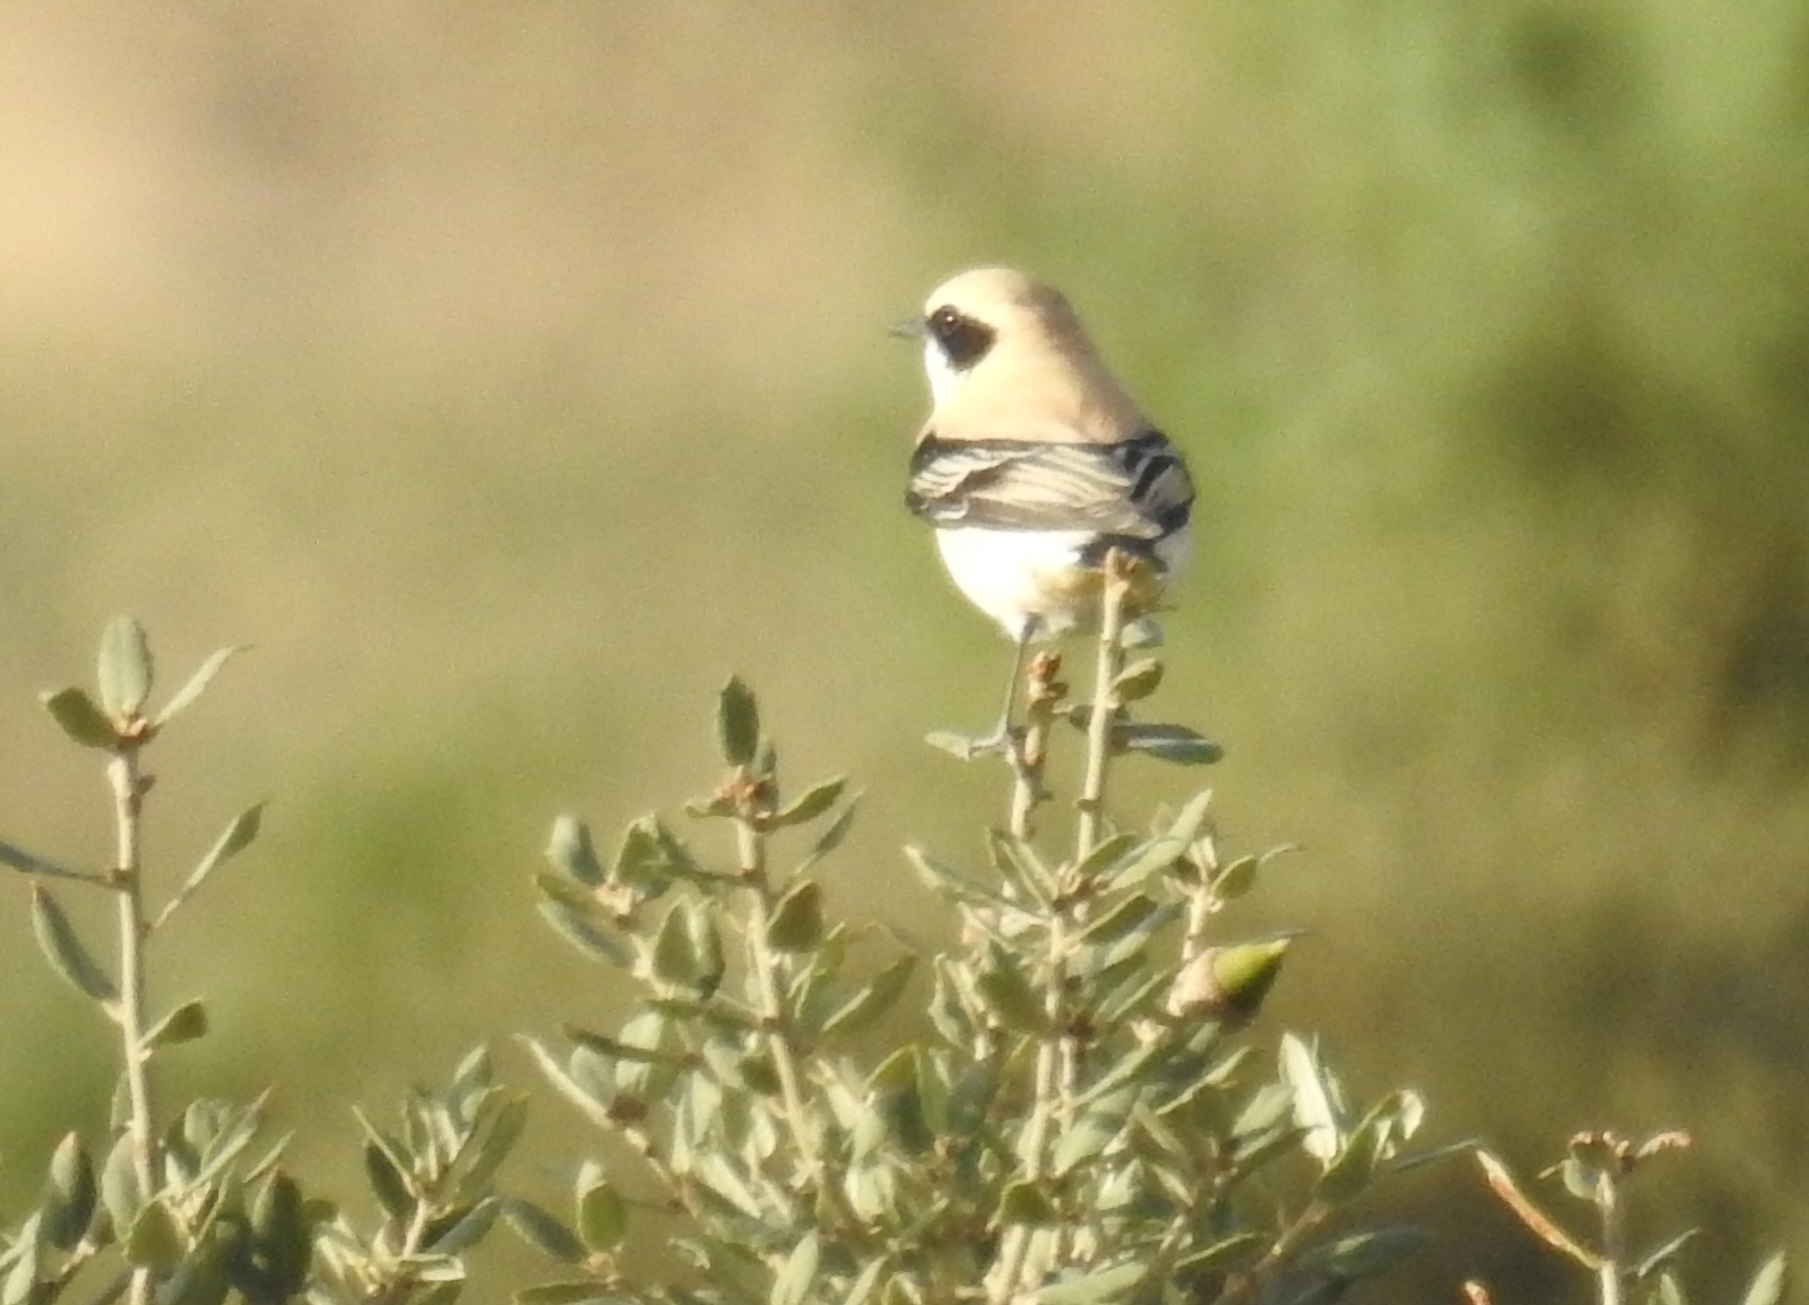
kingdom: Animalia
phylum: Chordata
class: Aves
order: Passeriformes
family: Muscicapidae
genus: Oenanthe
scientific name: Oenanthe hispanica
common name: Black-eared wheatear
